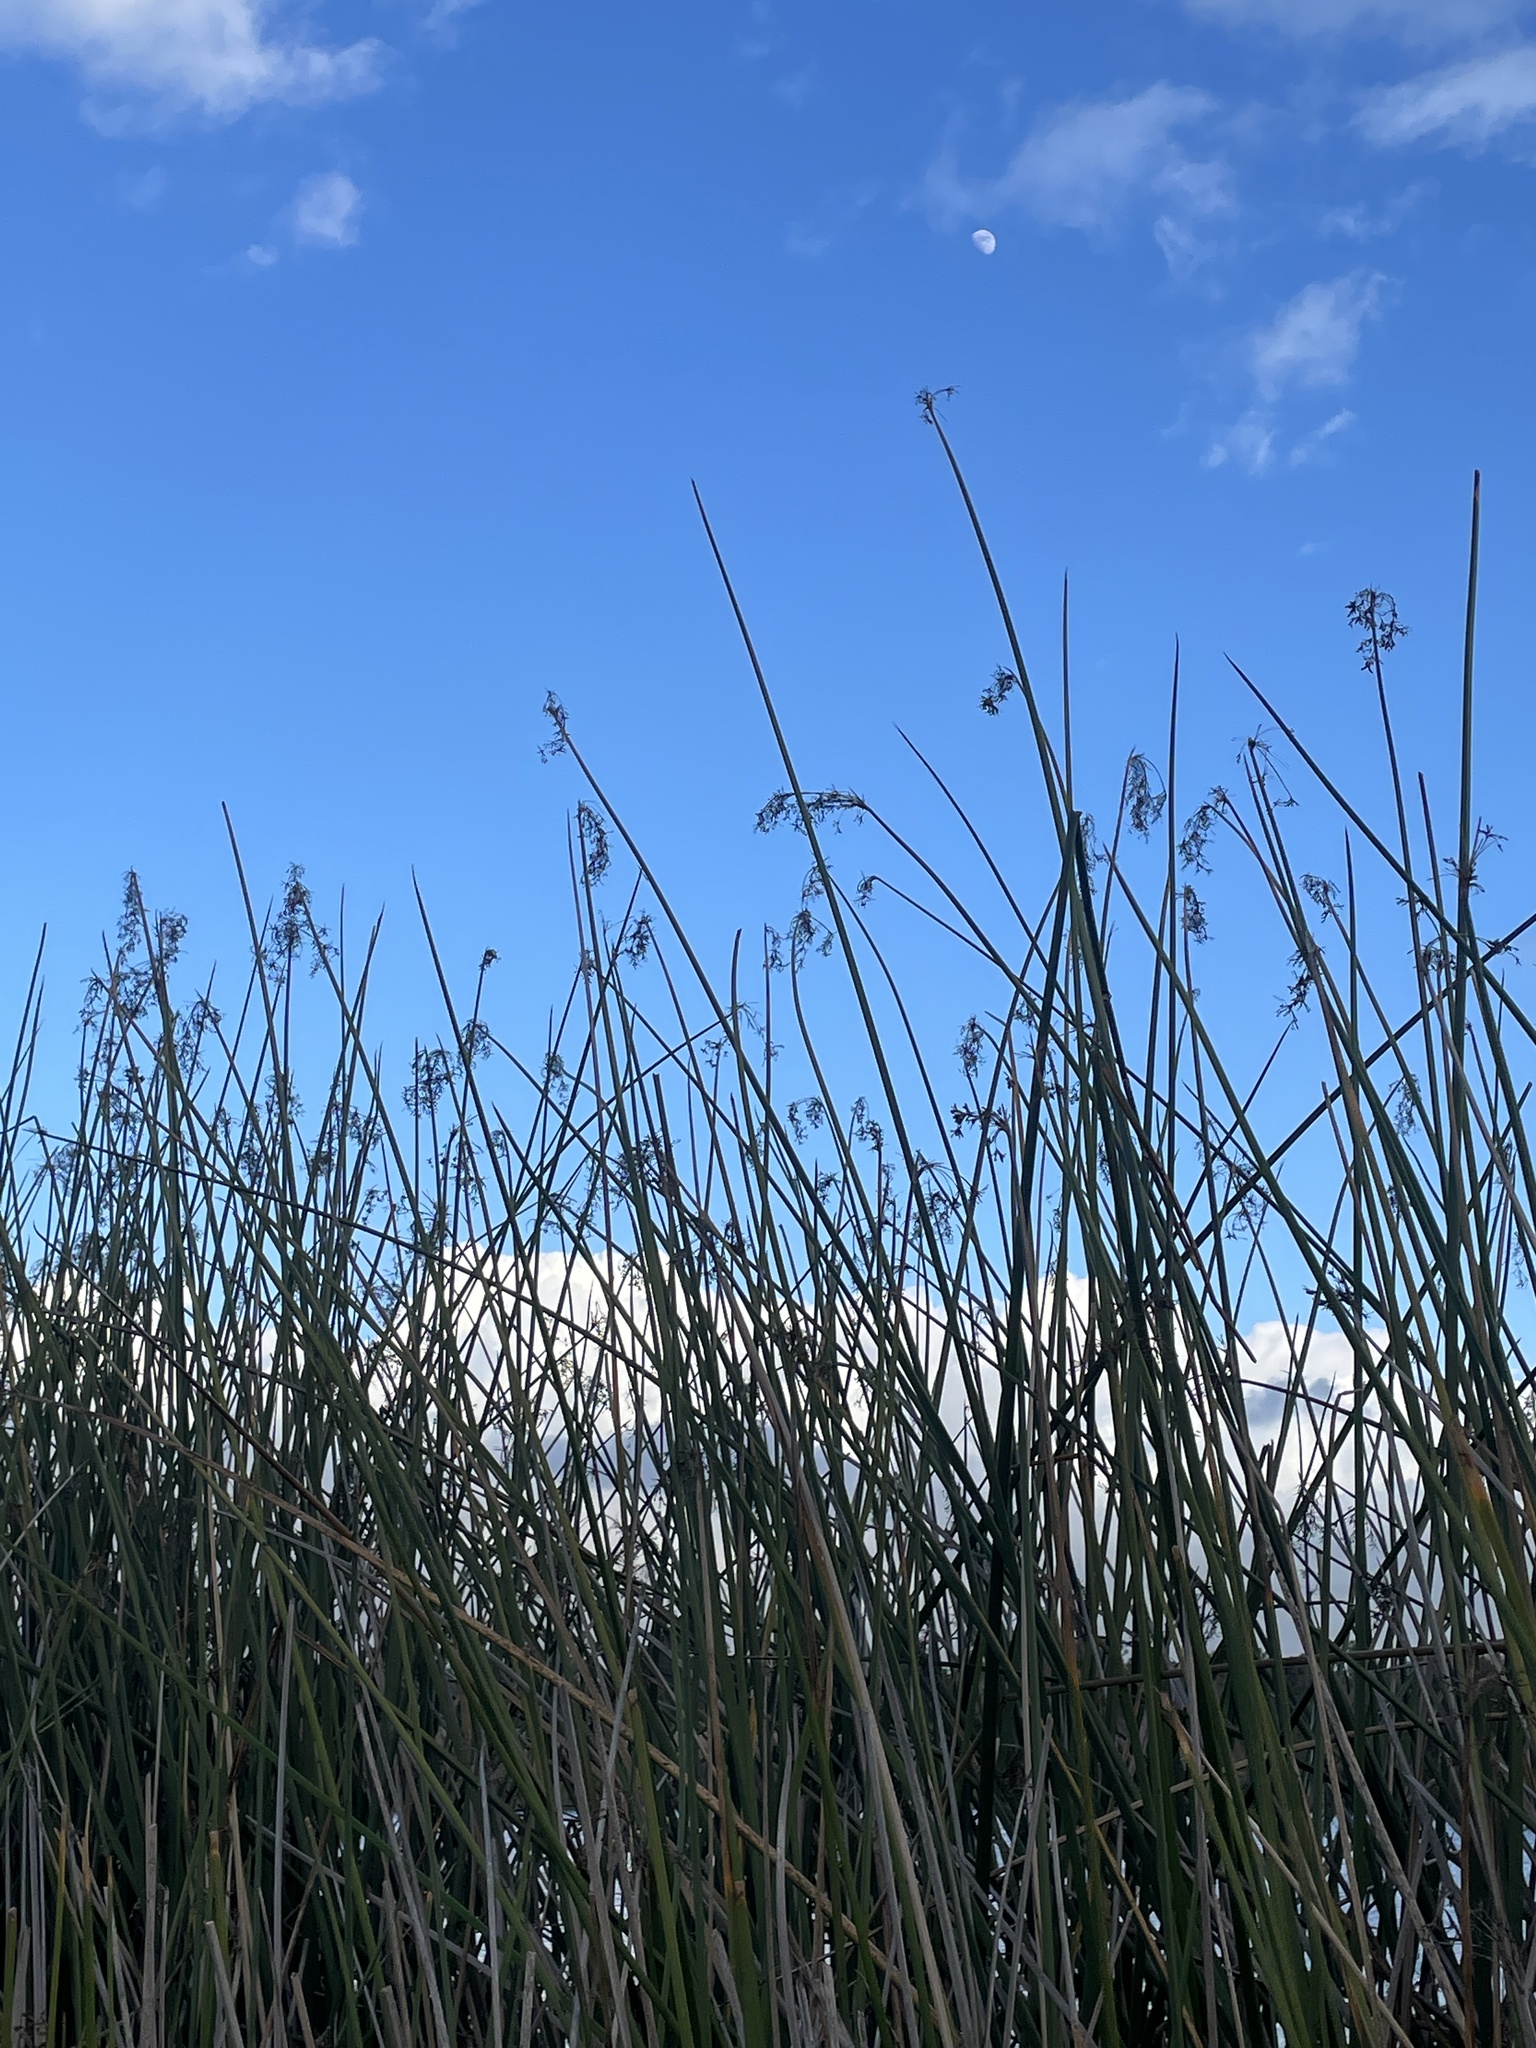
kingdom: Plantae
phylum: Tracheophyta
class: Liliopsida
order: Poales
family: Cyperaceae
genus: Schoenoplectus
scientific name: Schoenoplectus californicus
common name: California bulrush
